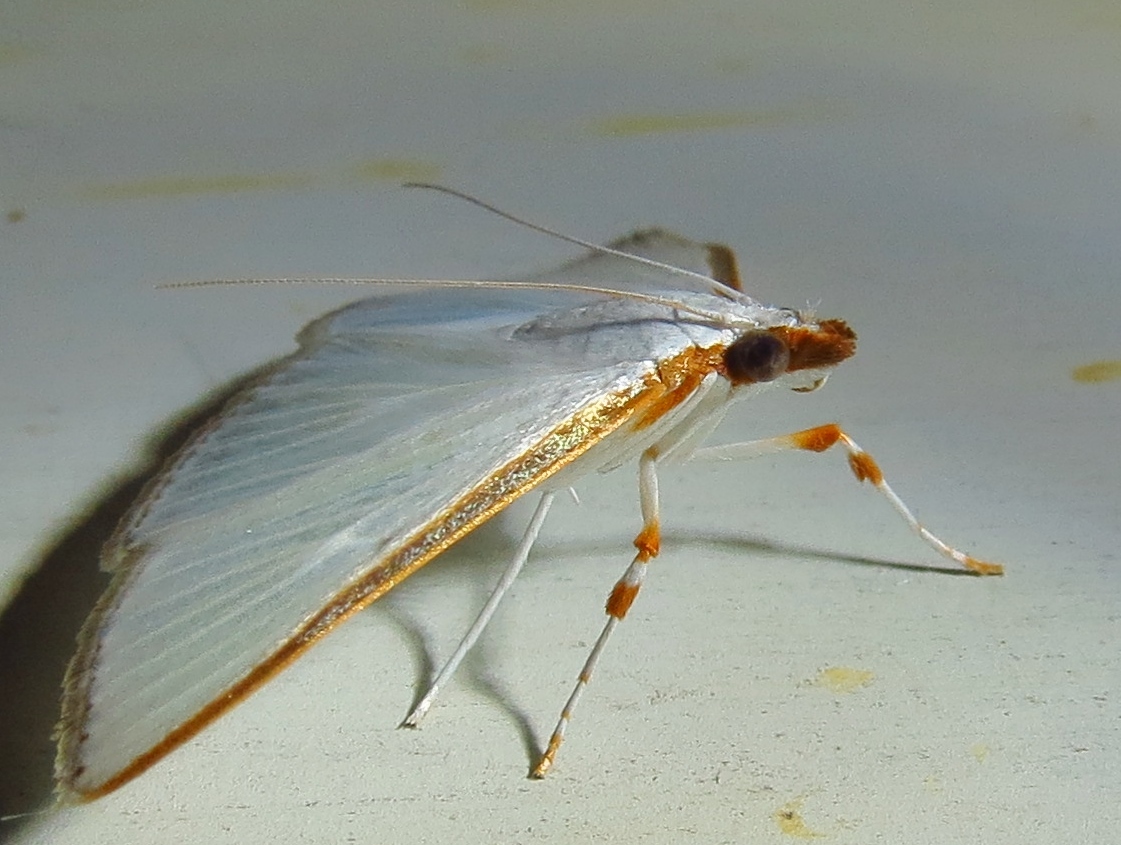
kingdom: Animalia
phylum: Arthropoda
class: Insecta
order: Lepidoptera
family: Crambidae
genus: Diaphania
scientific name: Diaphania costata
